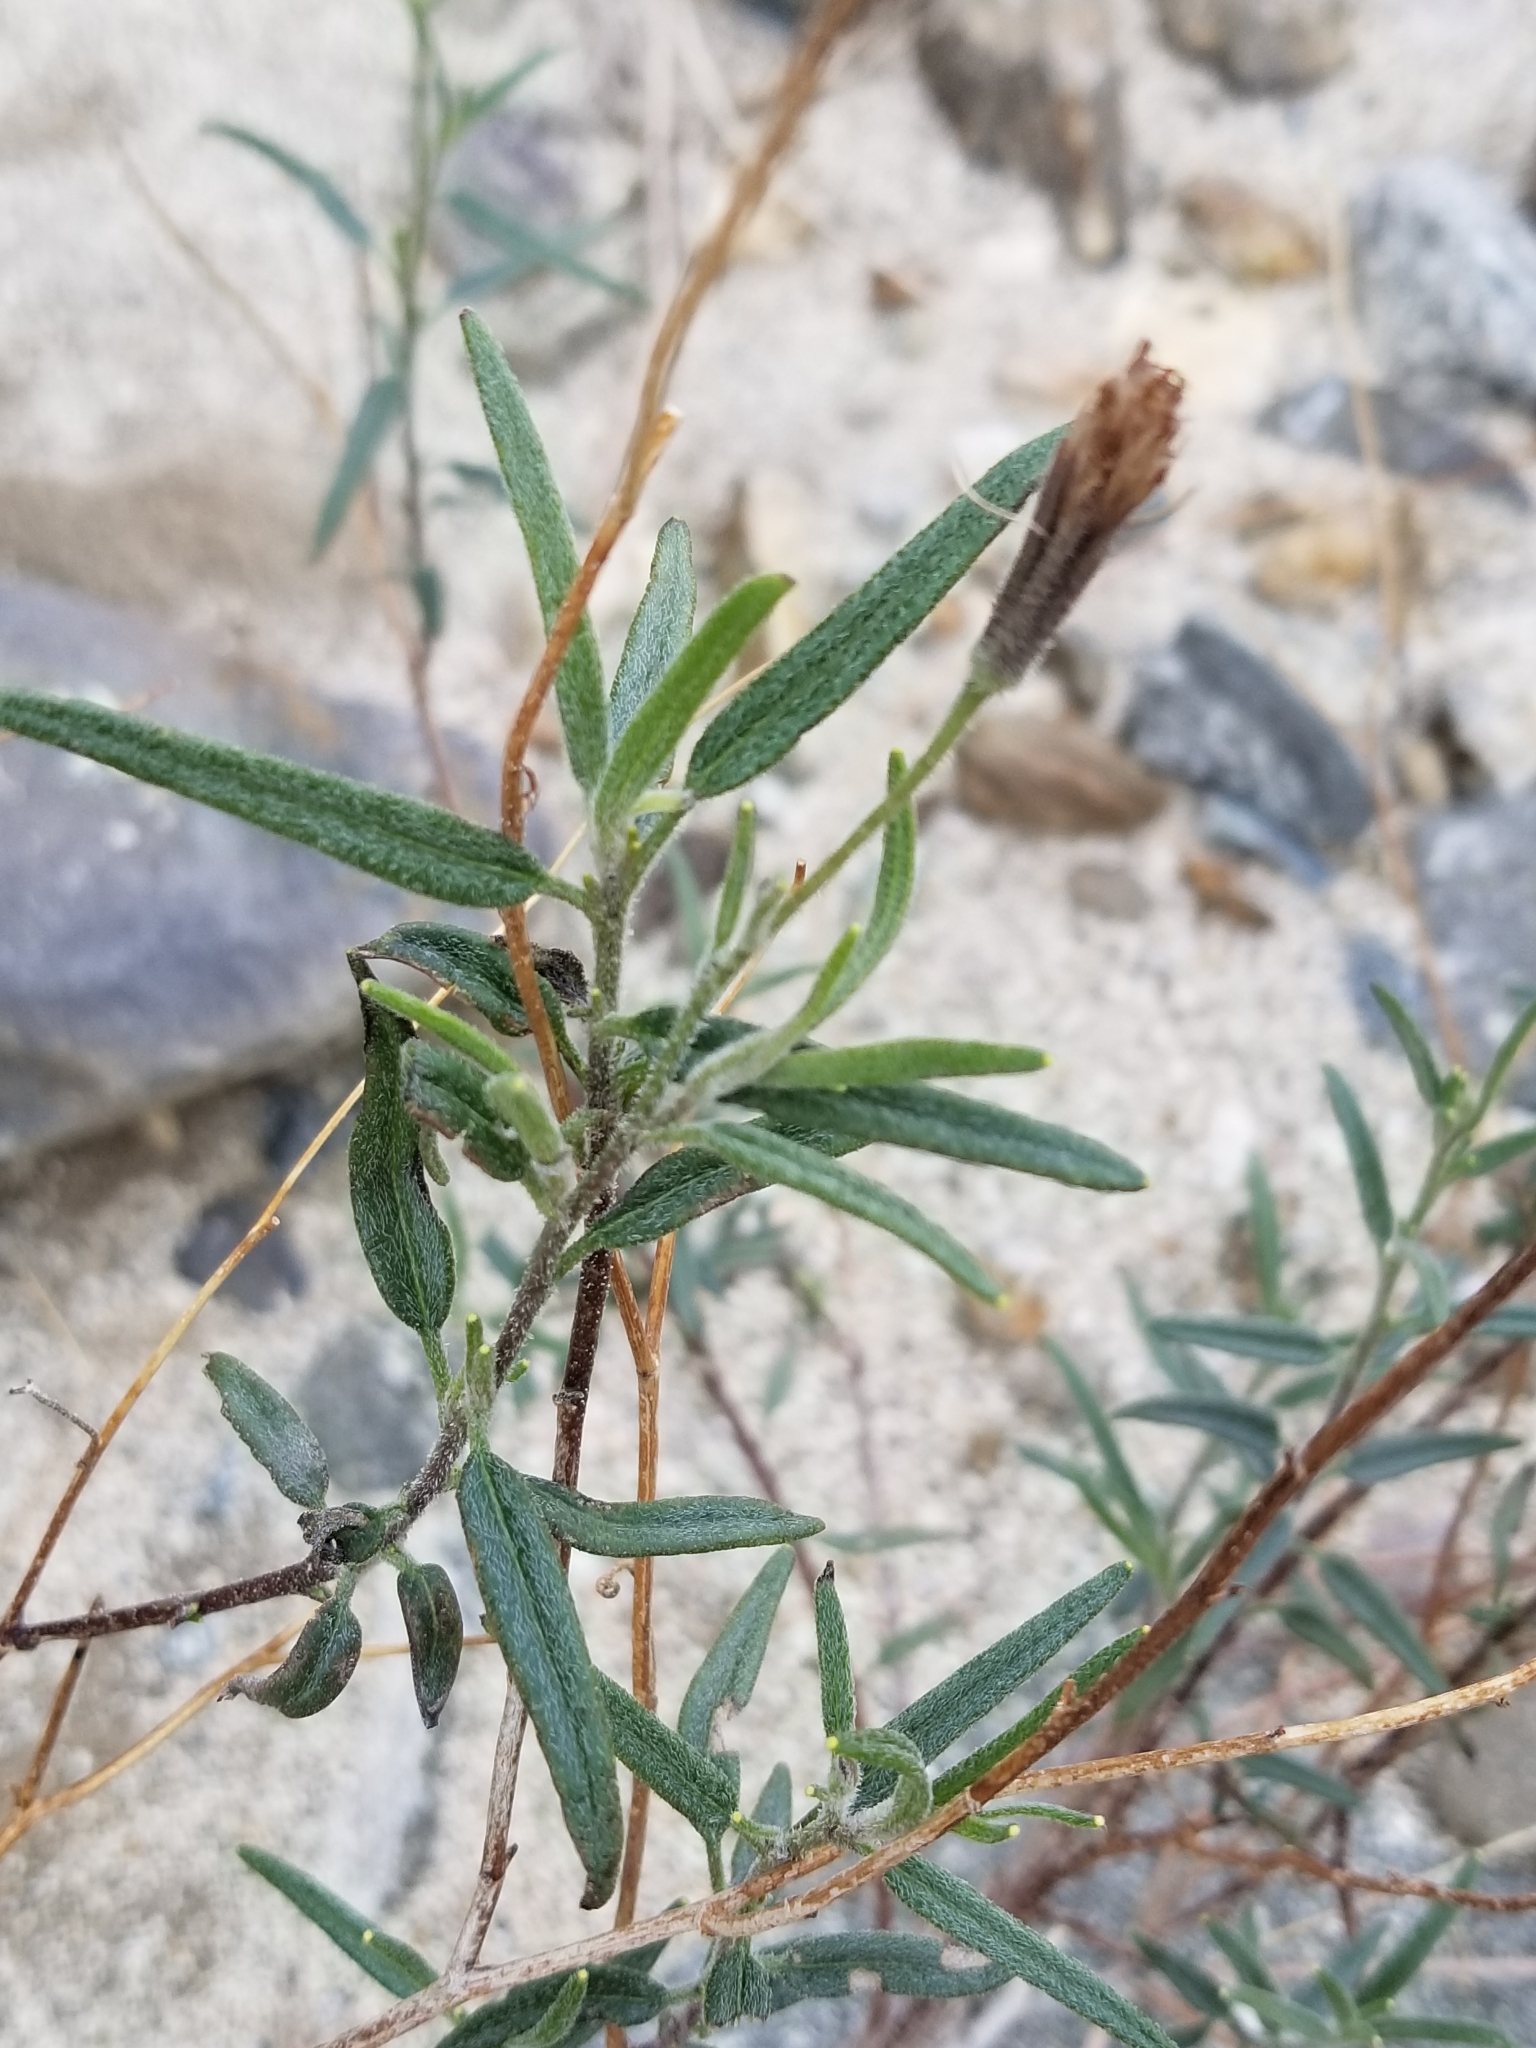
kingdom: Plantae
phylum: Tracheophyta
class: Magnoliopsida
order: Asterales
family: Asteraceae
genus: Palafoxia
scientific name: Palafoxia arida
